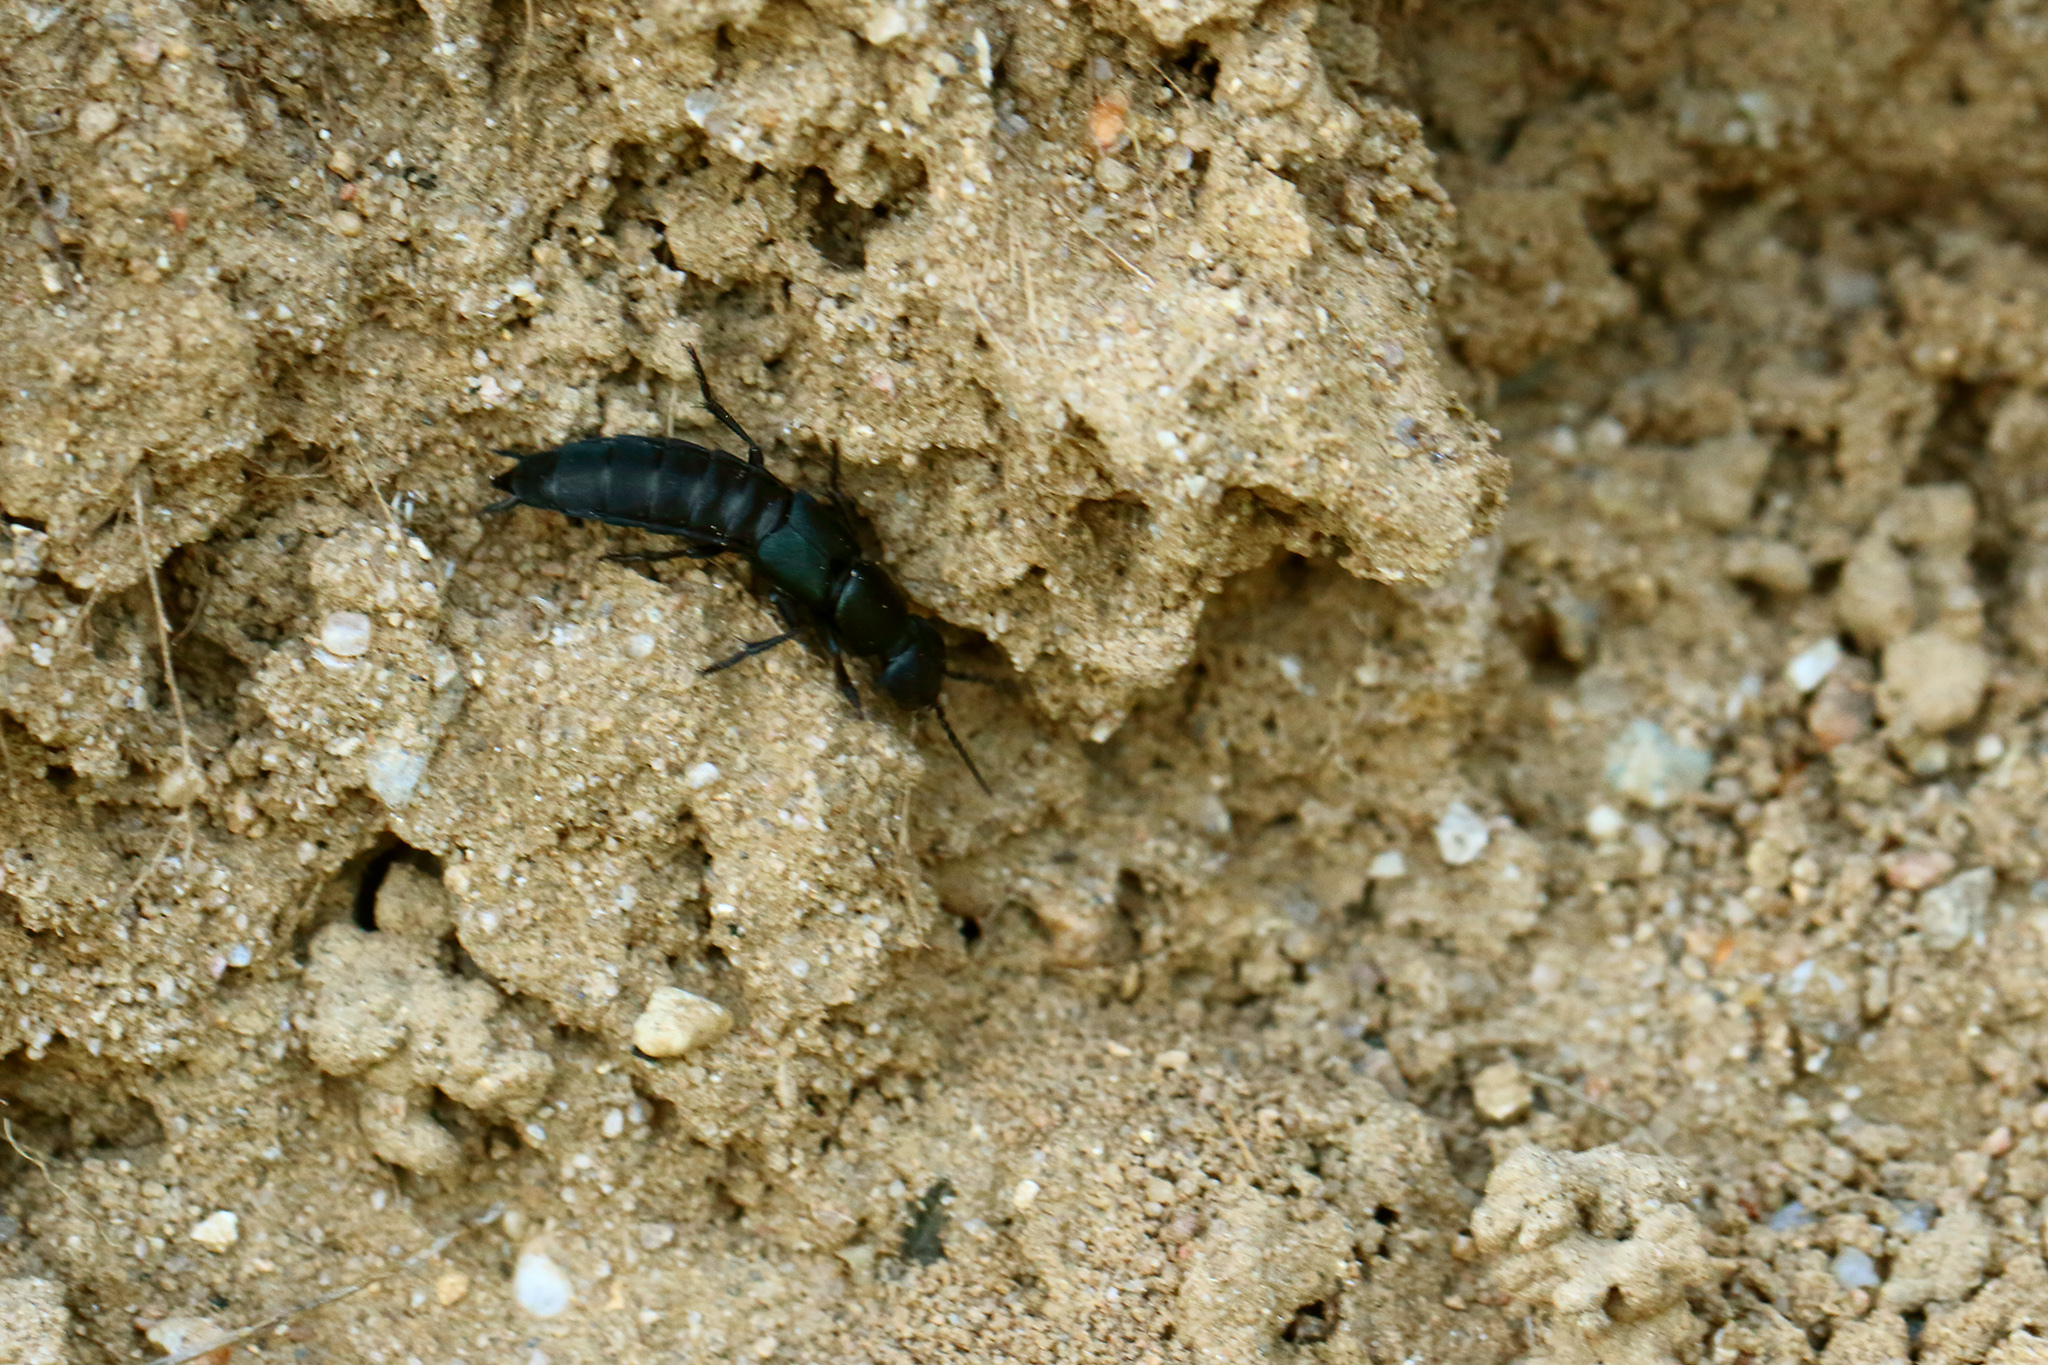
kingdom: Animalia
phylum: Arthropoda
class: Insecta
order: Coleoptera
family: Staphylinidae
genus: Ocypus
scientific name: Ocypus ophthalmicus
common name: Blue rove-beetle
